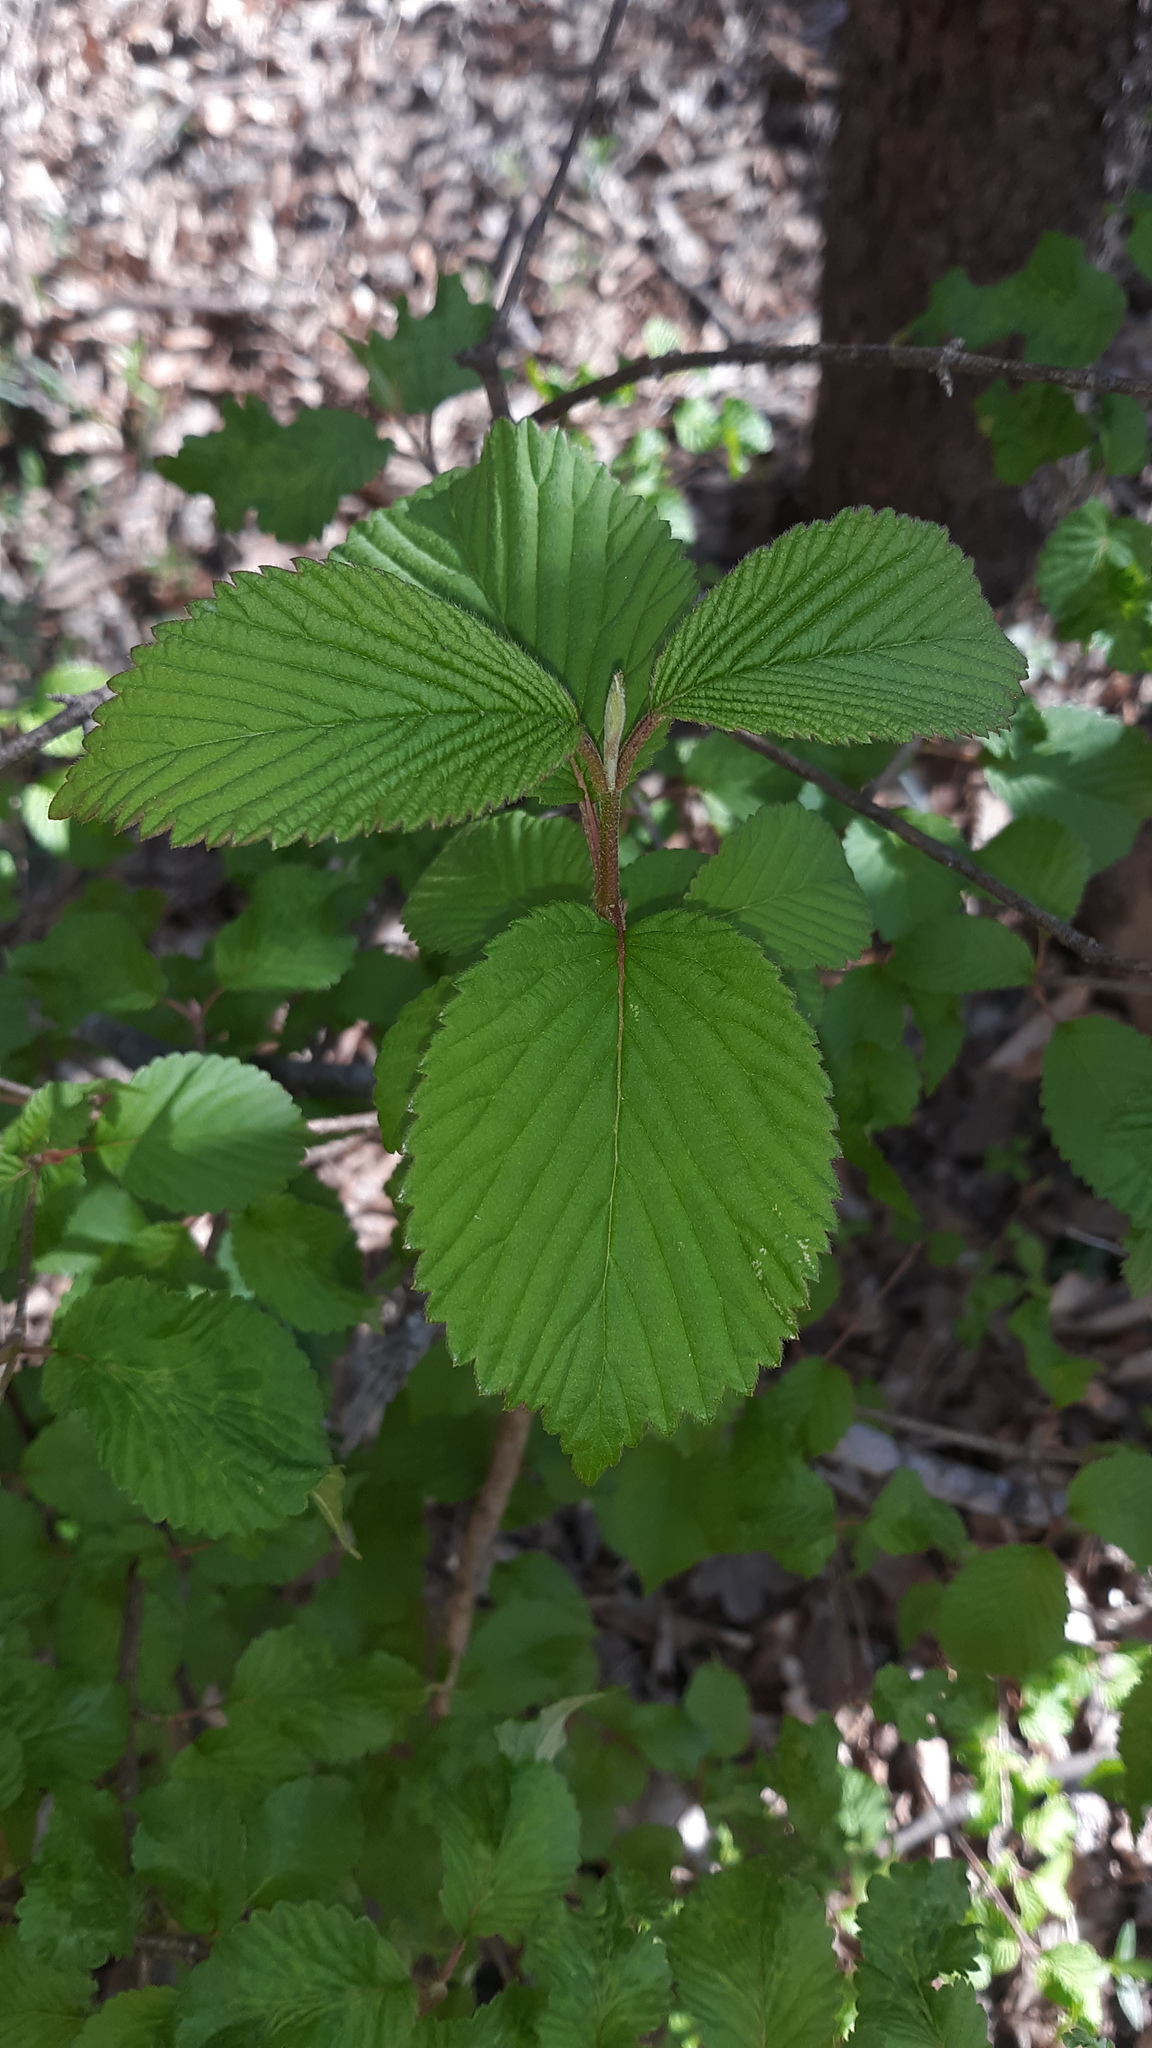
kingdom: Plantae
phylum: Tracheophyta
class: Magnoliopsida
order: Dipsacales
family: Viburnaceae
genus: Viburnum
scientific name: Viburnum plicatum
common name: Japanese snowball
